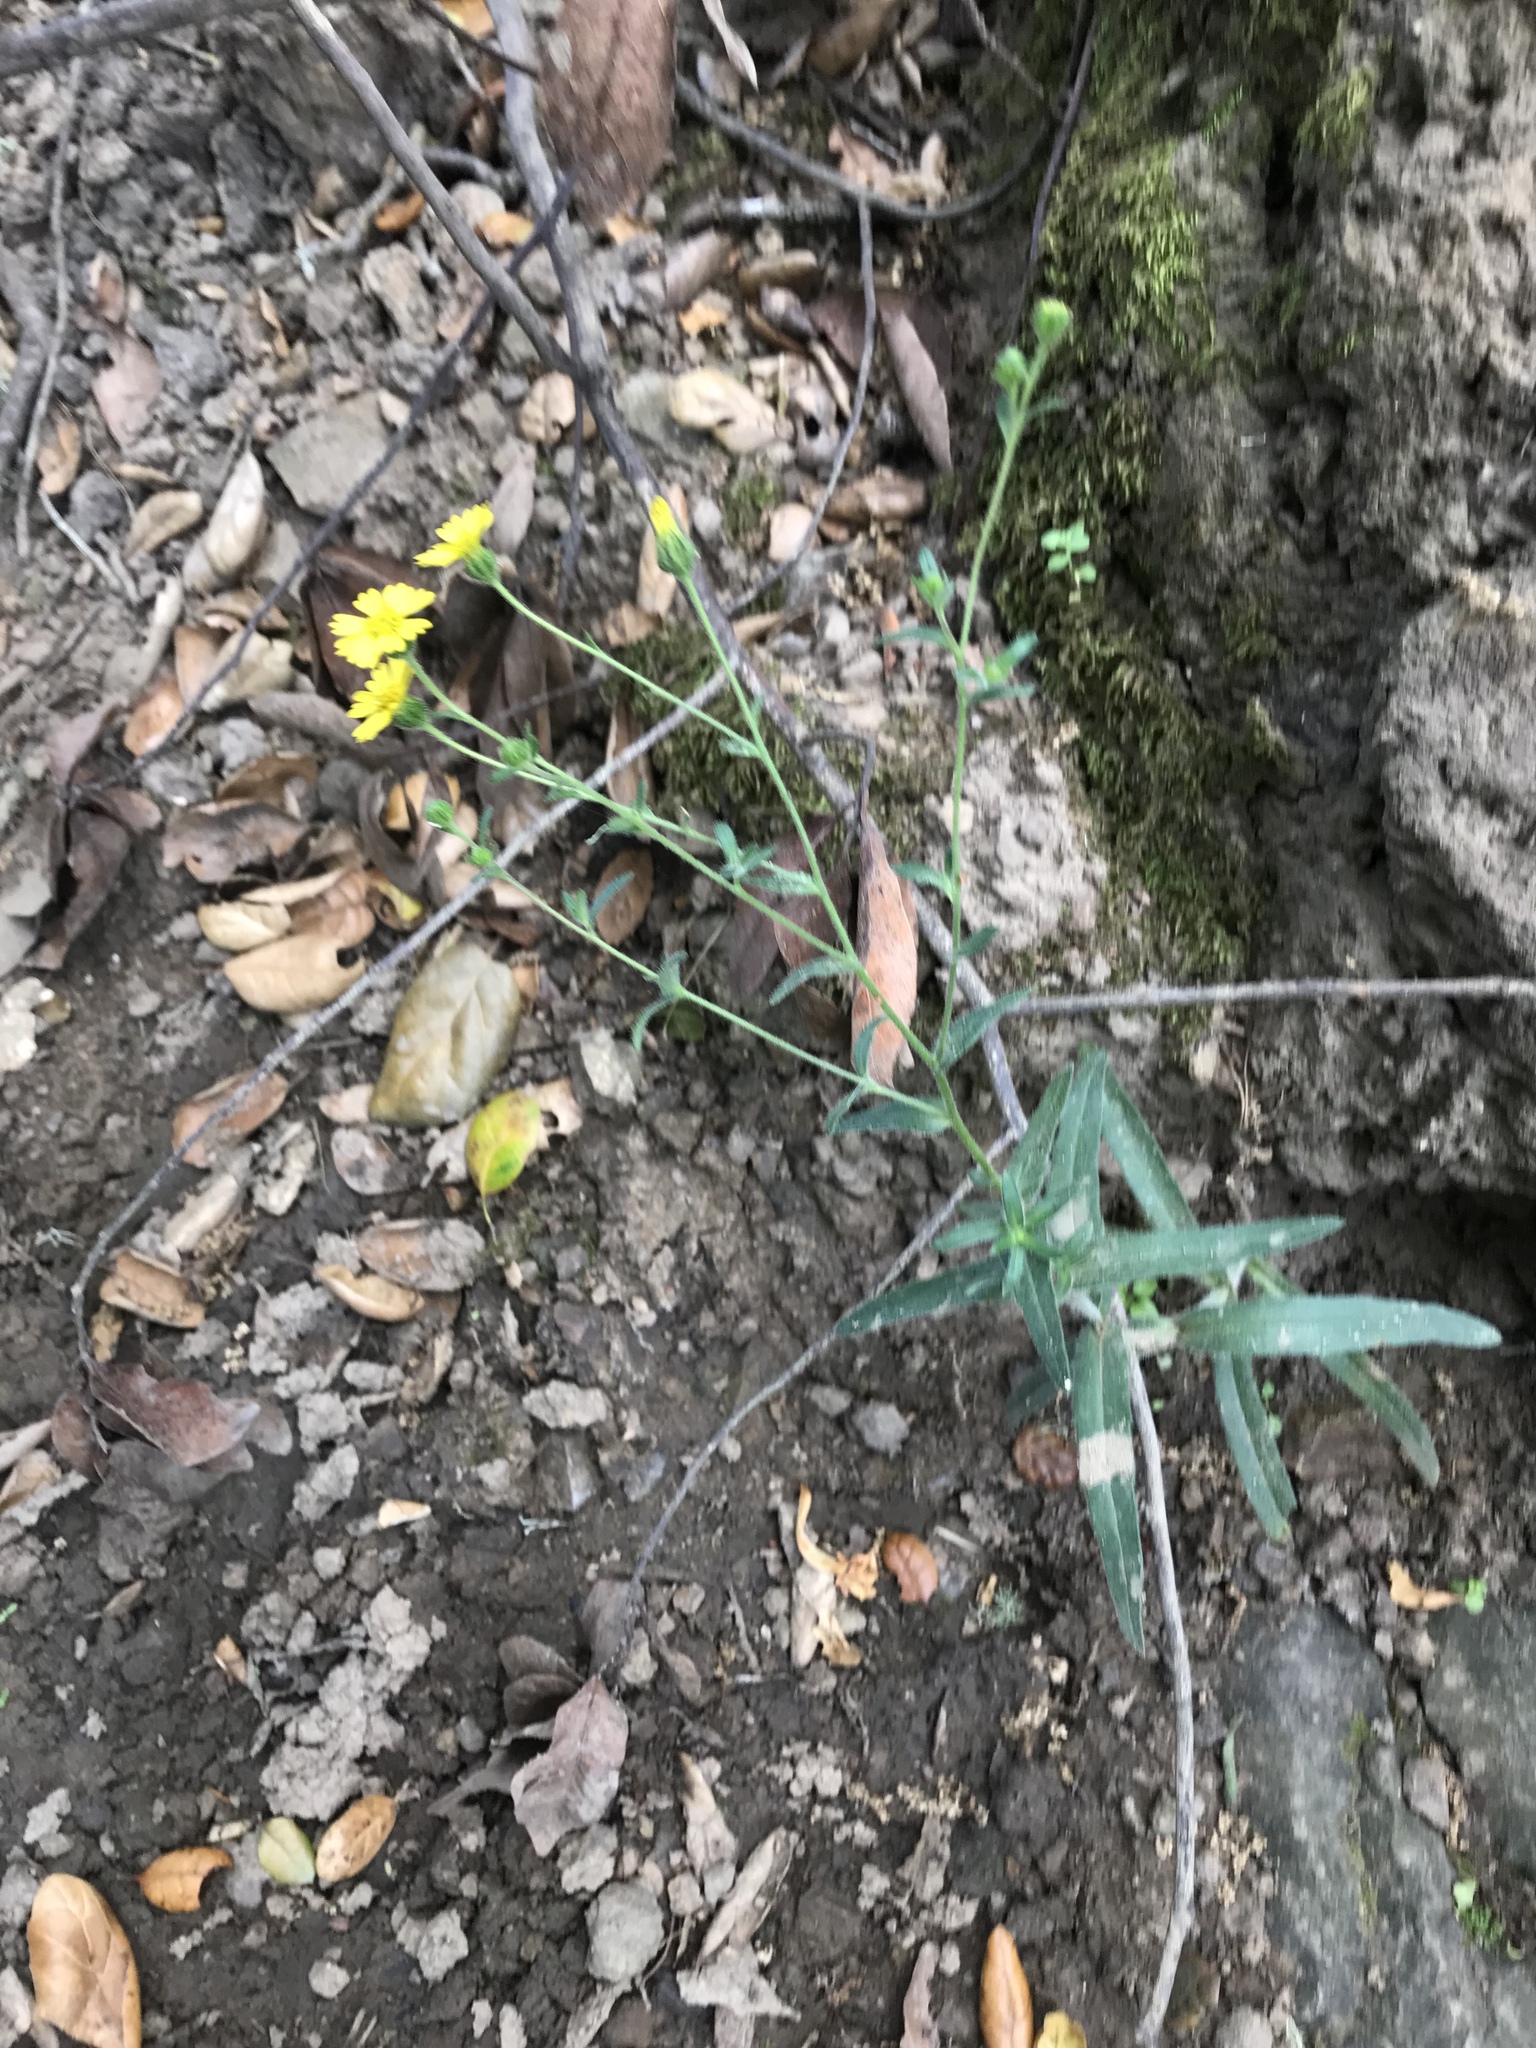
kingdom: Plantae
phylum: Tracheophyta
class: Magnoliopsida
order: Asterales
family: Asteraceae
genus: Anisocarpus
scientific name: Anisocarpus madioides
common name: Woodland madia
